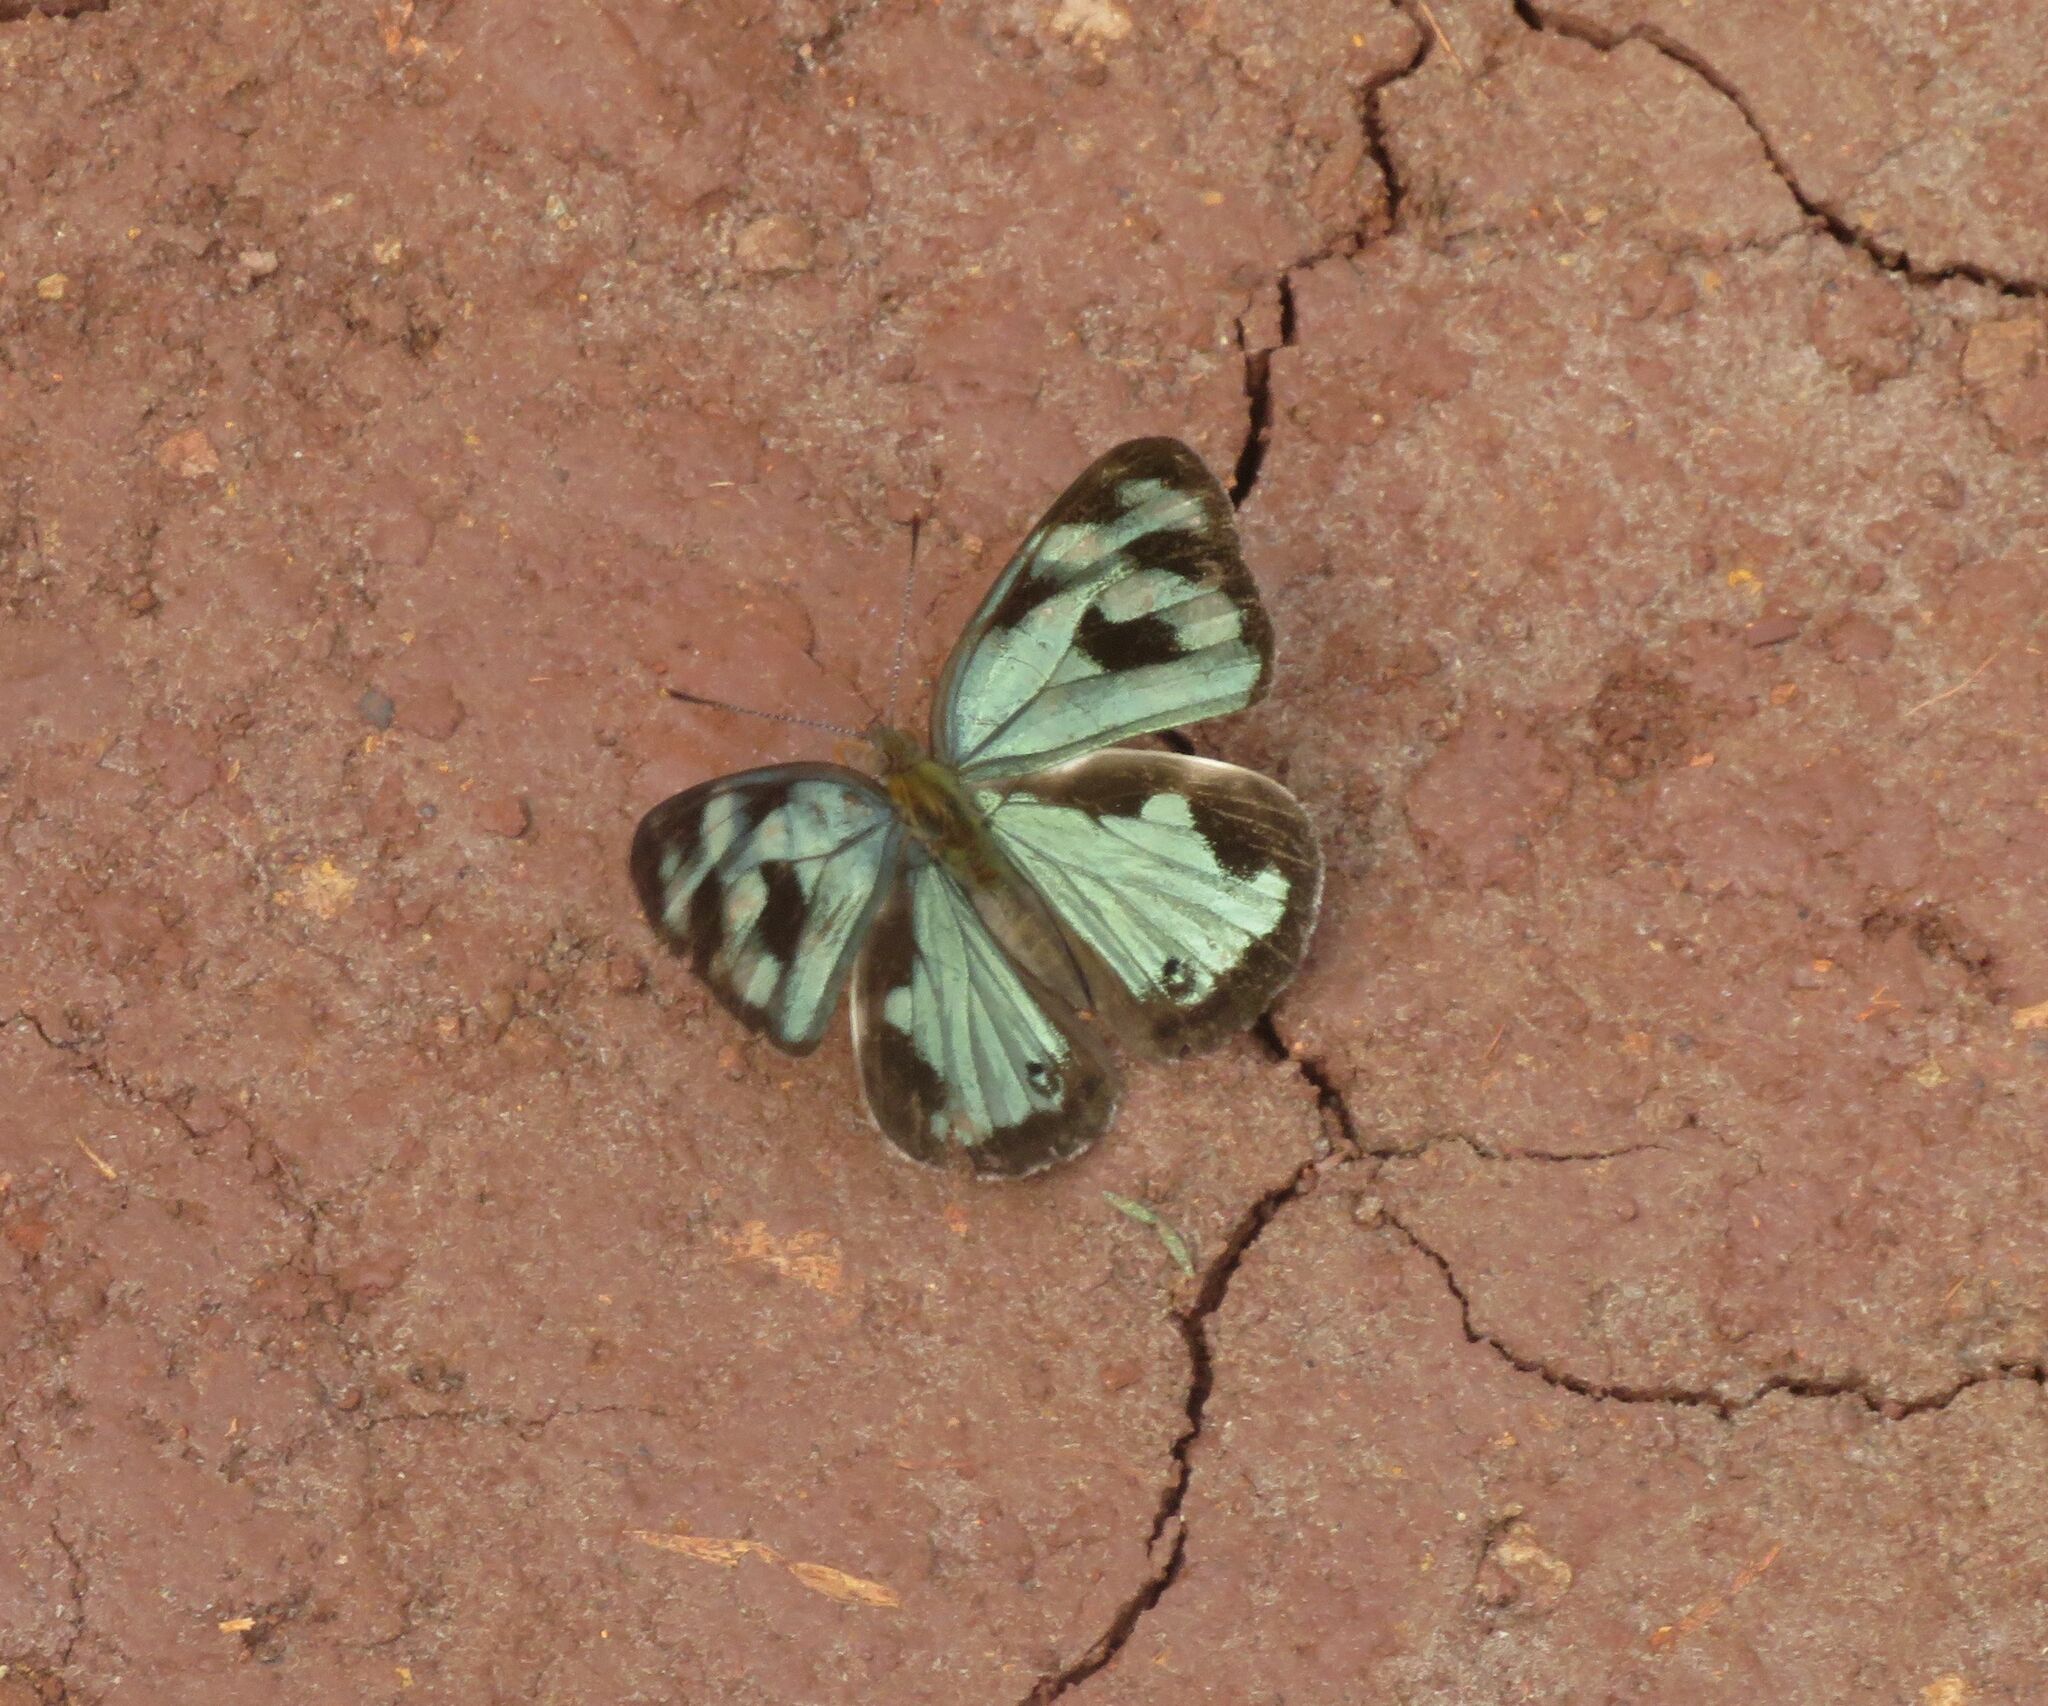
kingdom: Animalia
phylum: Arthropoda
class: Insecta
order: Lepidoptera
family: Nymphalidae
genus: Dynamine
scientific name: Dynamine mylitta
